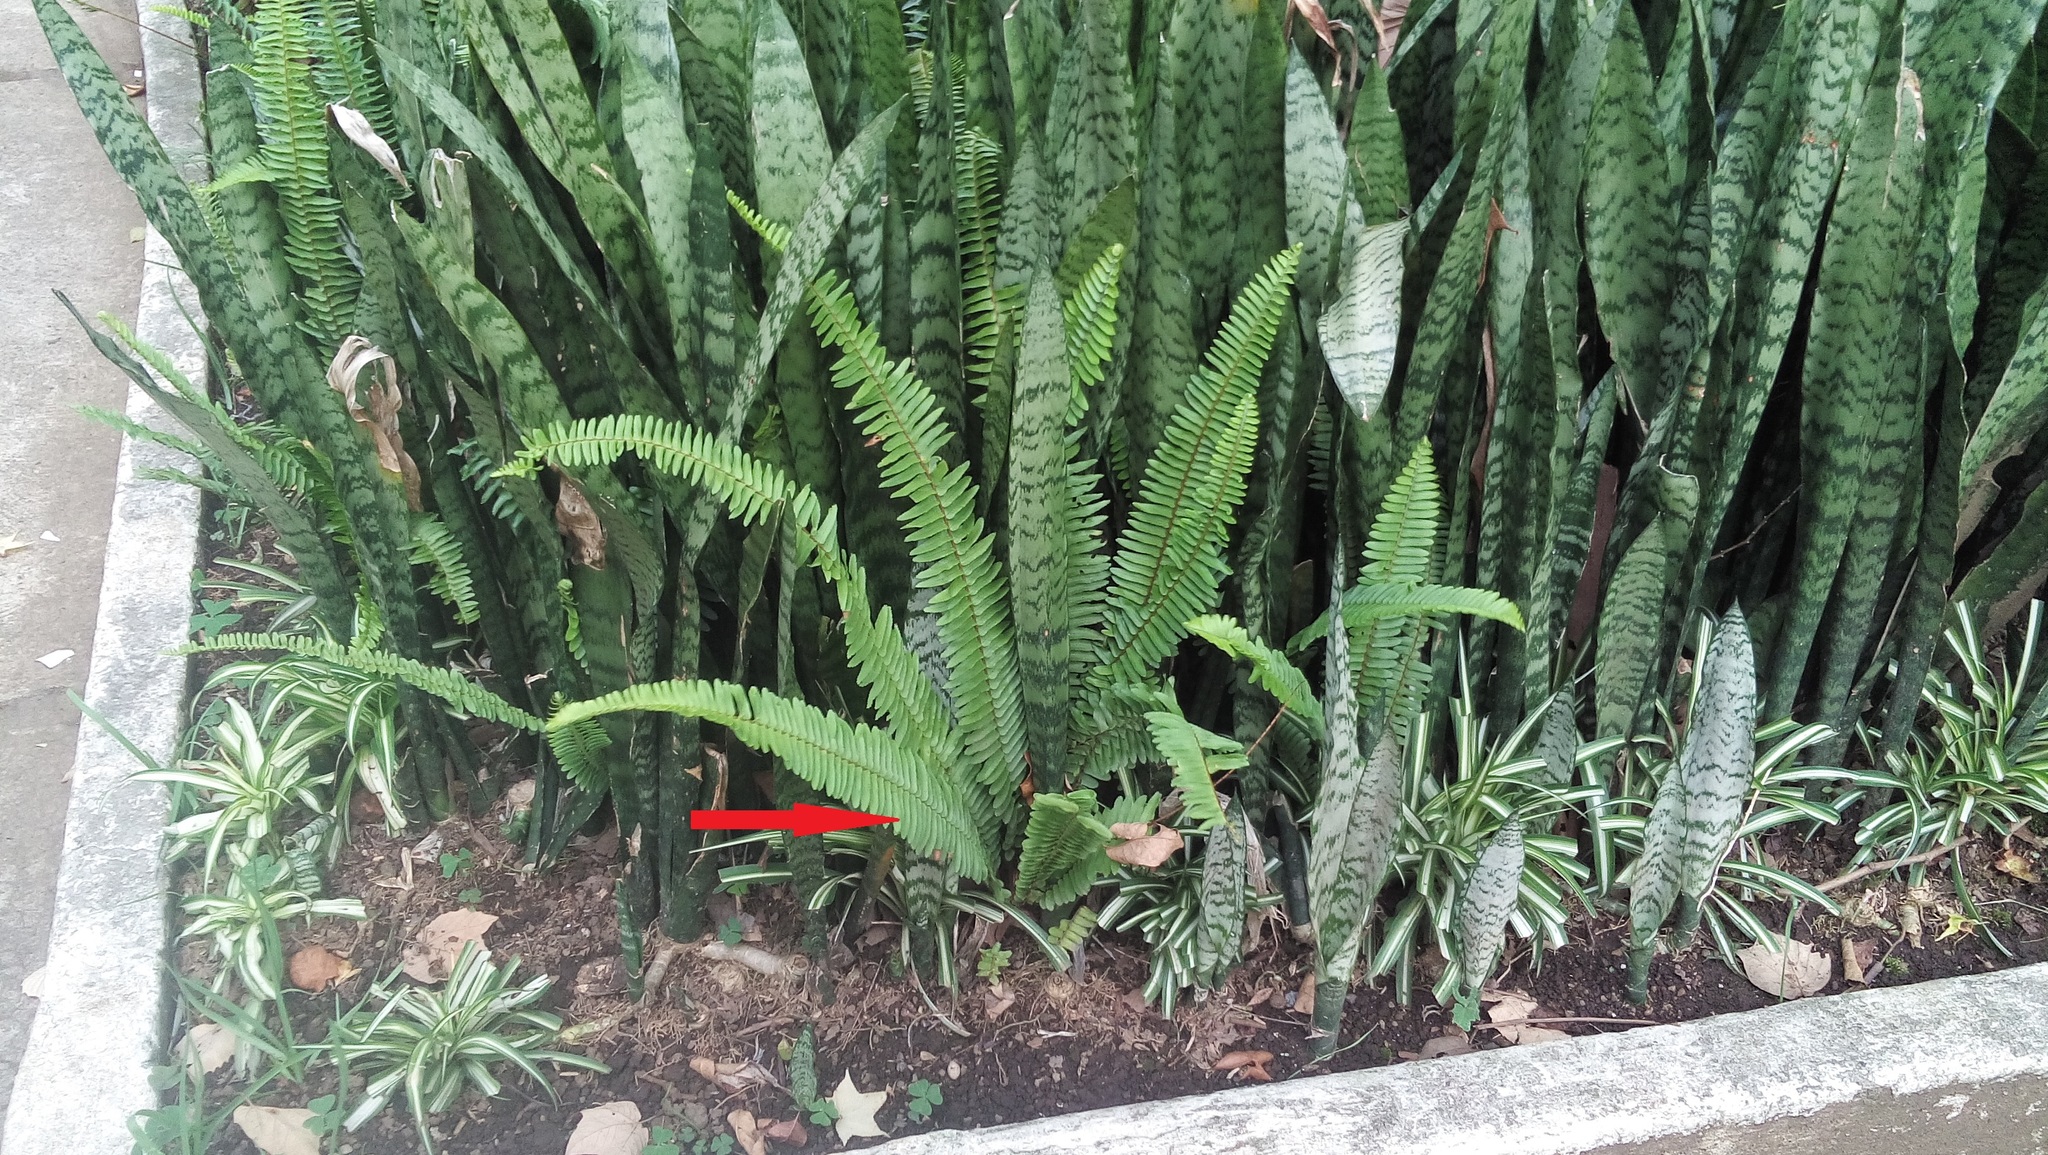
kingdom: Plantae
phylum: Tracheophyta
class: Polypodiopsida
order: Polypodiales
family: Nephrolepidaceae
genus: Nephrolepis
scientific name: Nephrolepis cordifolia
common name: Narrow swordfern
